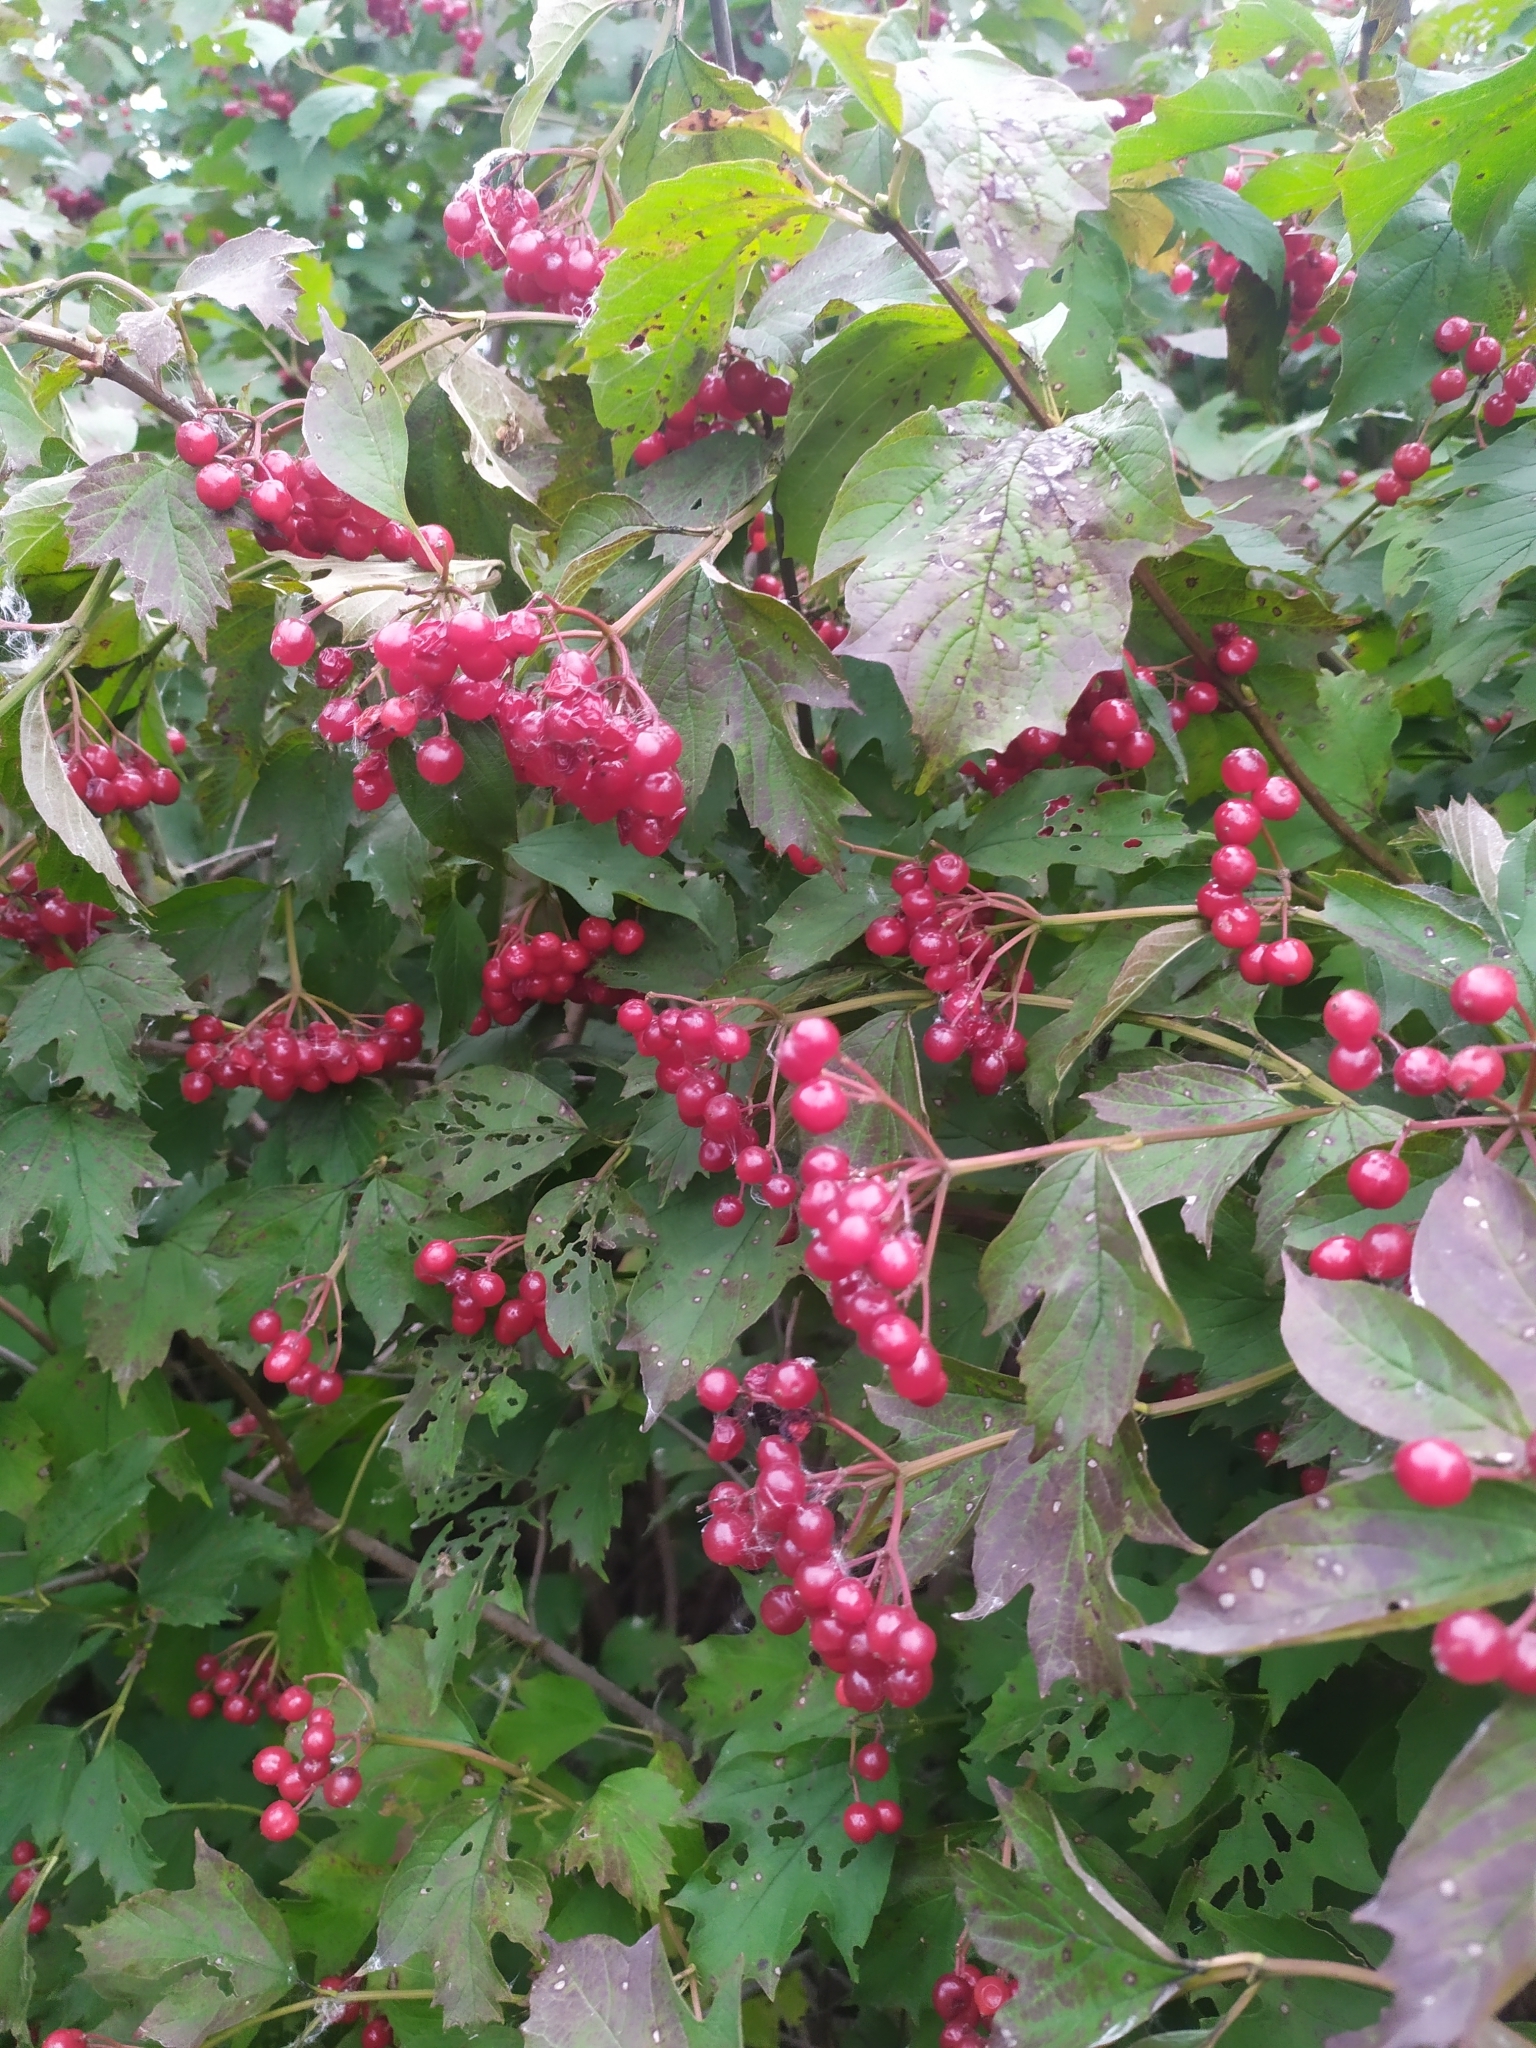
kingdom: Plantae
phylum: Tracheophyta
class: Magnoliopsida
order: Dipsacales
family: Viburnaceae
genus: Viburnum
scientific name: Viburnum opulus
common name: Guelder-rose
